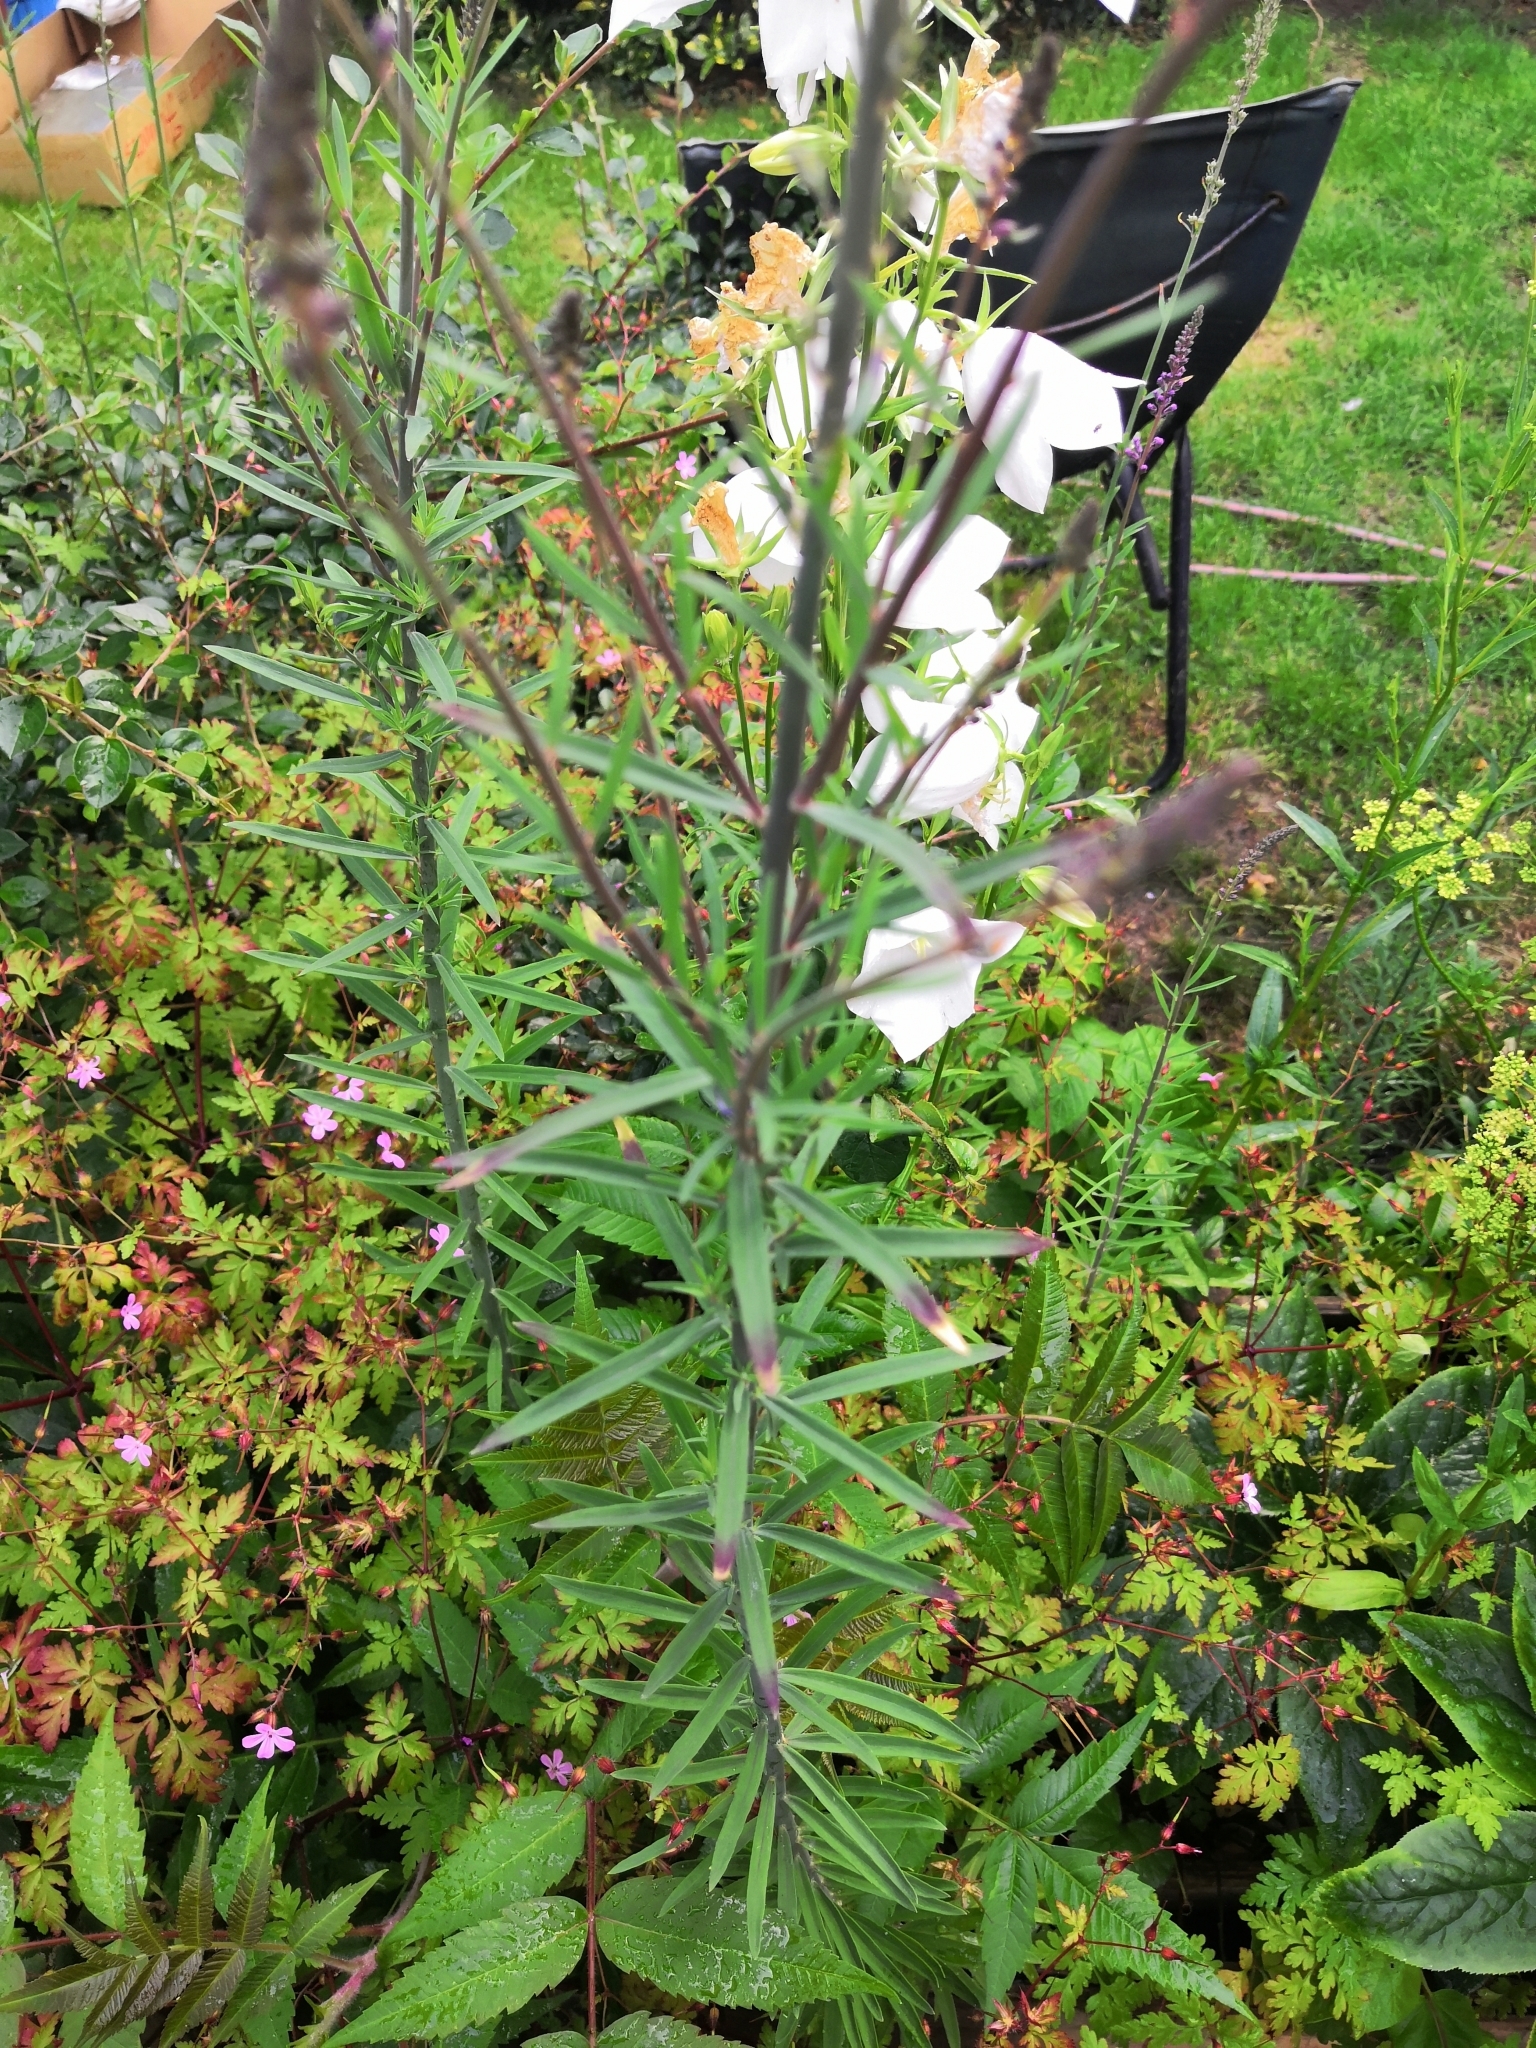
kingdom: Plantae
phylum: Tracheophyta
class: Magnoliopsida
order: Lamiales
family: Plantaginaceae
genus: Linaria
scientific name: Linaria purpurea
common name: Purple toadflax
